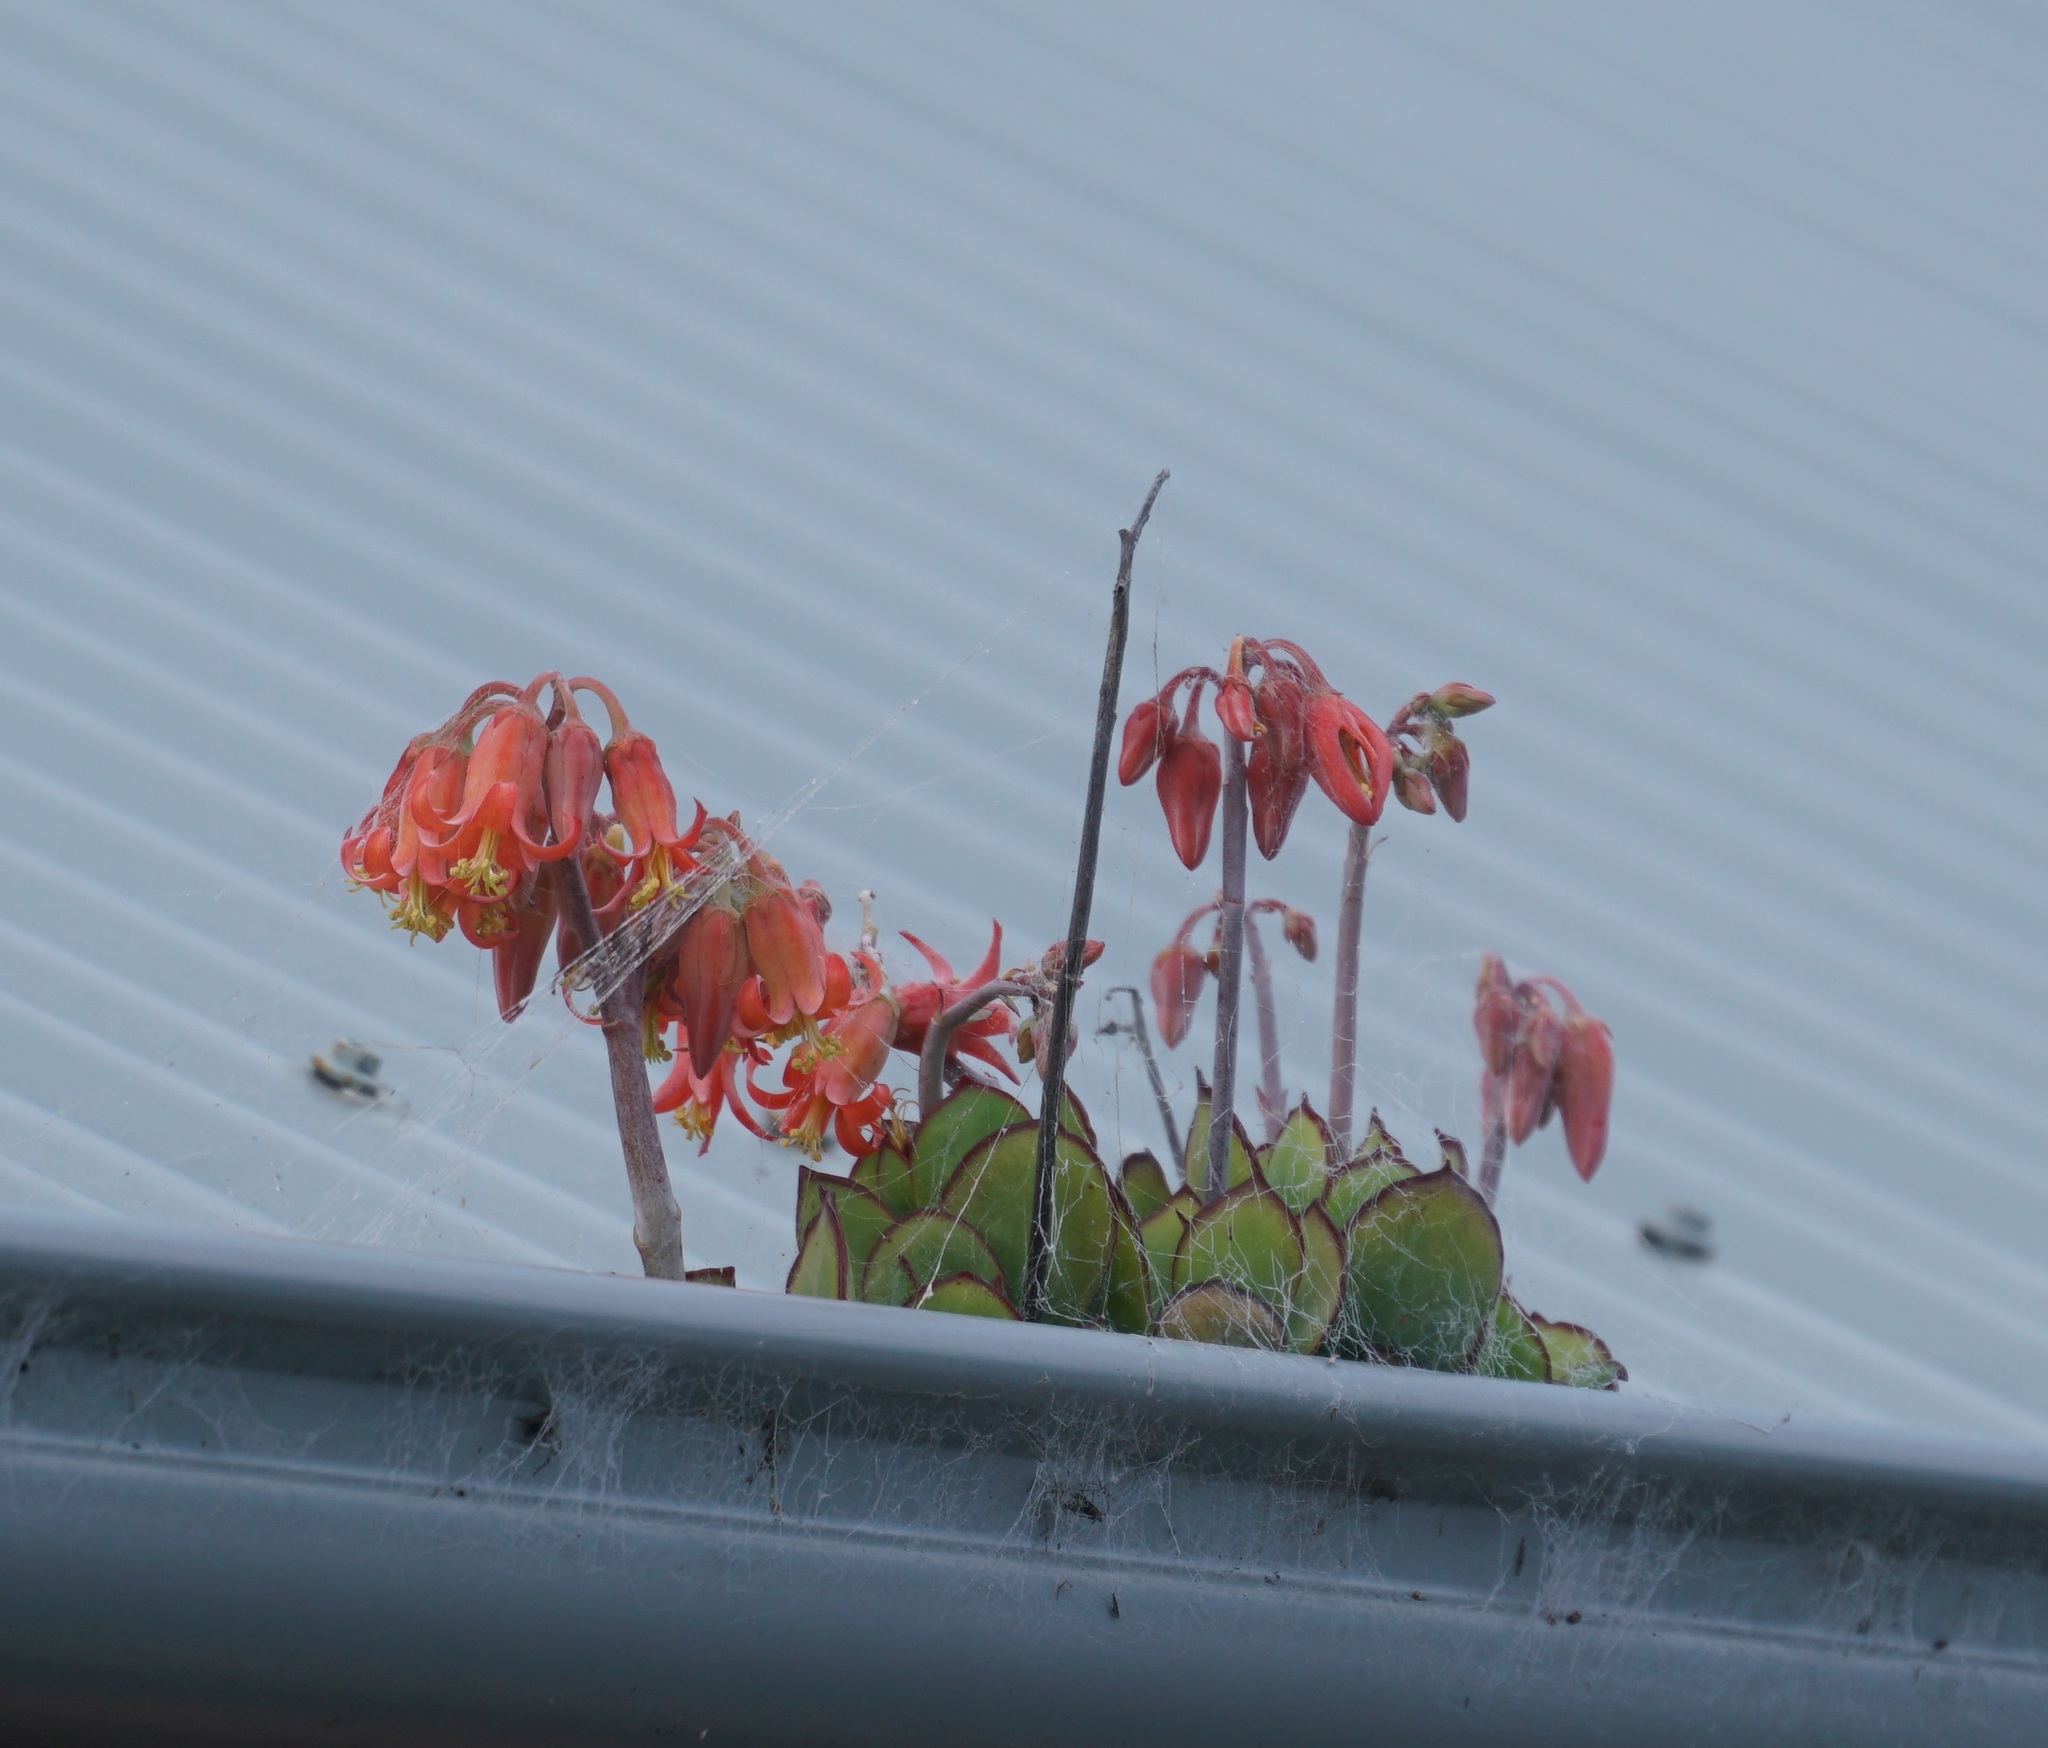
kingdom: Plantae
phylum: Tracheophyta
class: Magnoliopsida
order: Saxifragales
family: Crassulaceae
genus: Cotyledon
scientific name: Cotyledon orbiculata
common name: Pig's ear
